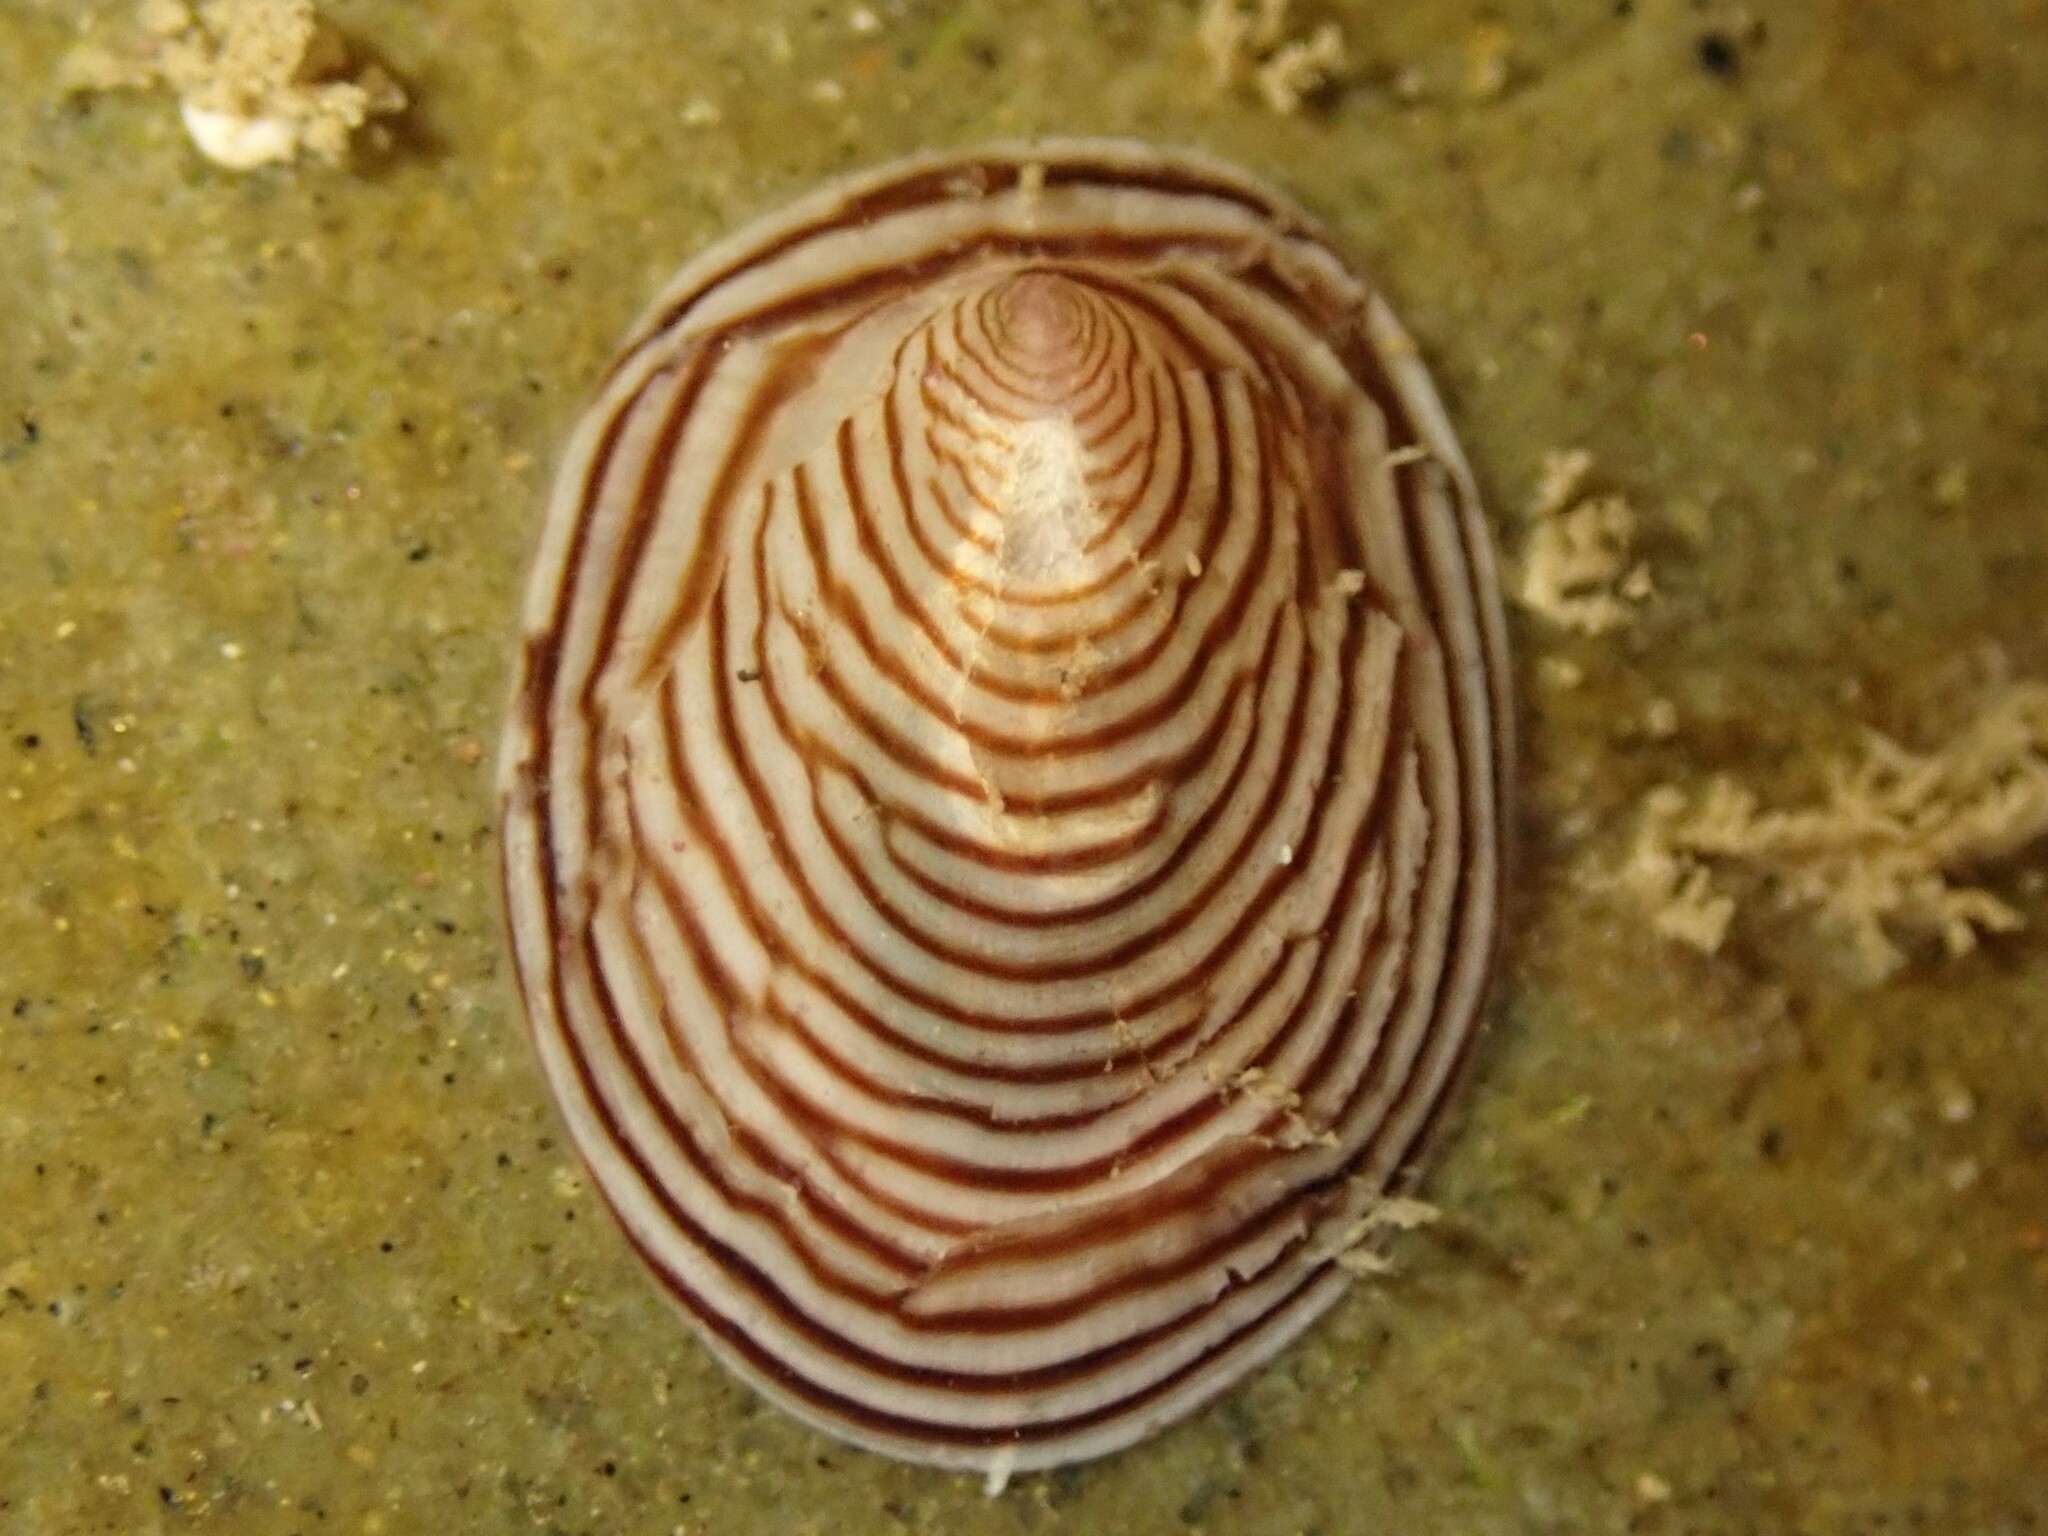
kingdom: Animalia
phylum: Mollusca
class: Gastropoda
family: Lottiidae
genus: Atalacmea
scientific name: Atalacmea multilinea
